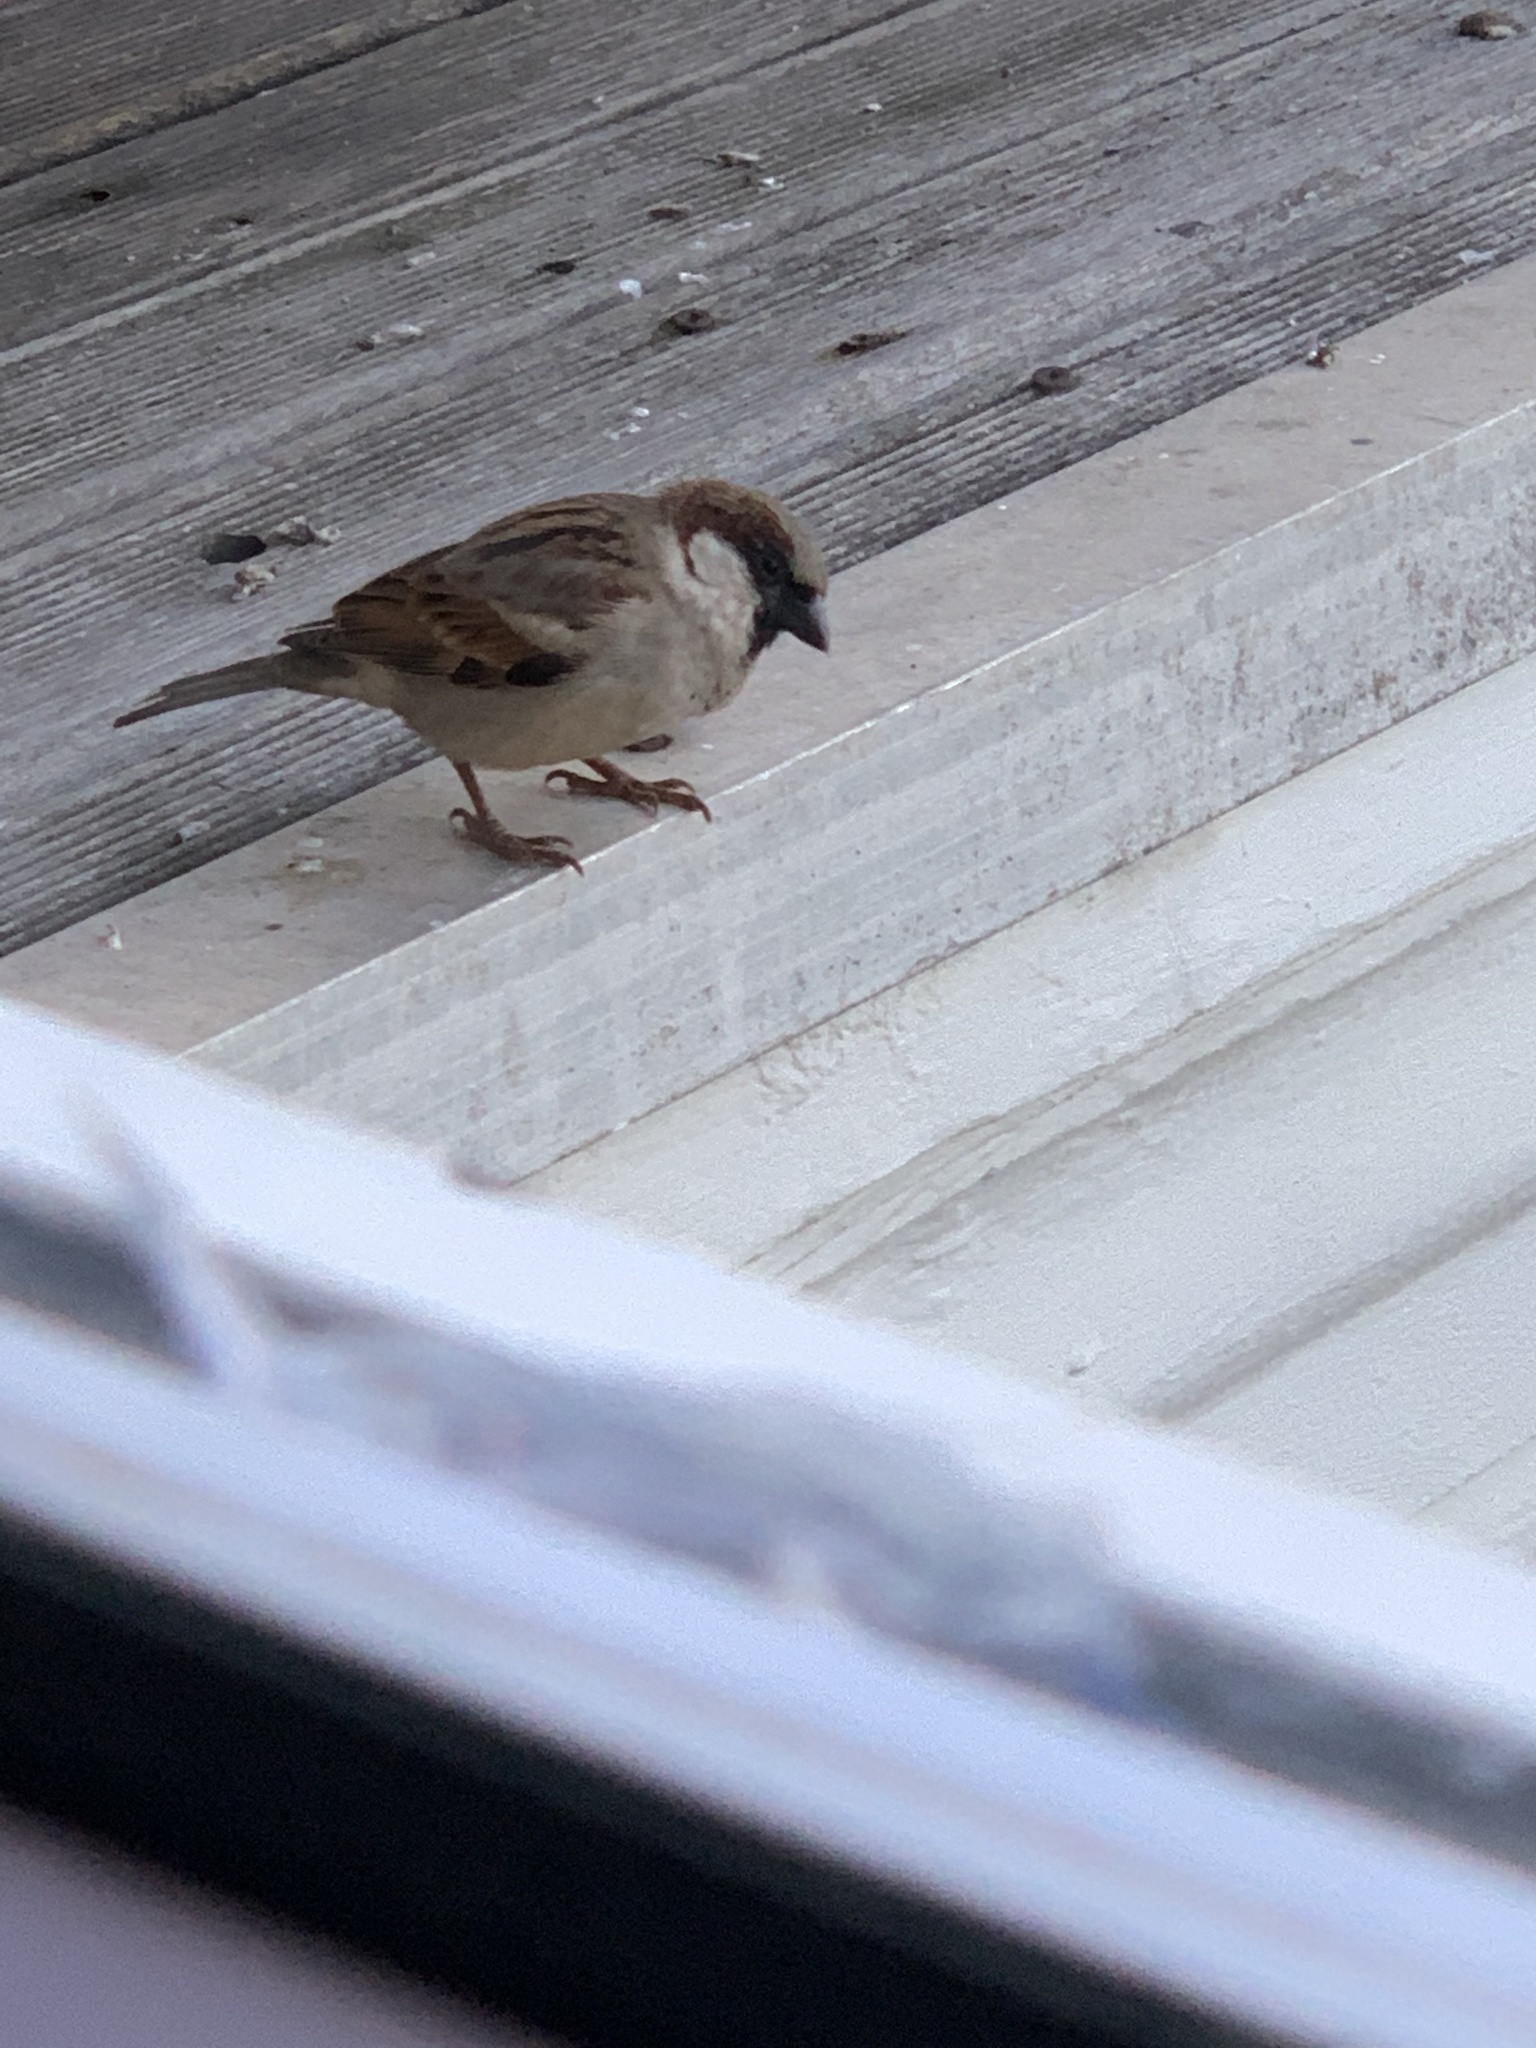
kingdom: Animalia
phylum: Chordata
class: Aves
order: Passeriformes
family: Passeridae
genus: Passer
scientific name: Passer domesticus
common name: House sparrow
